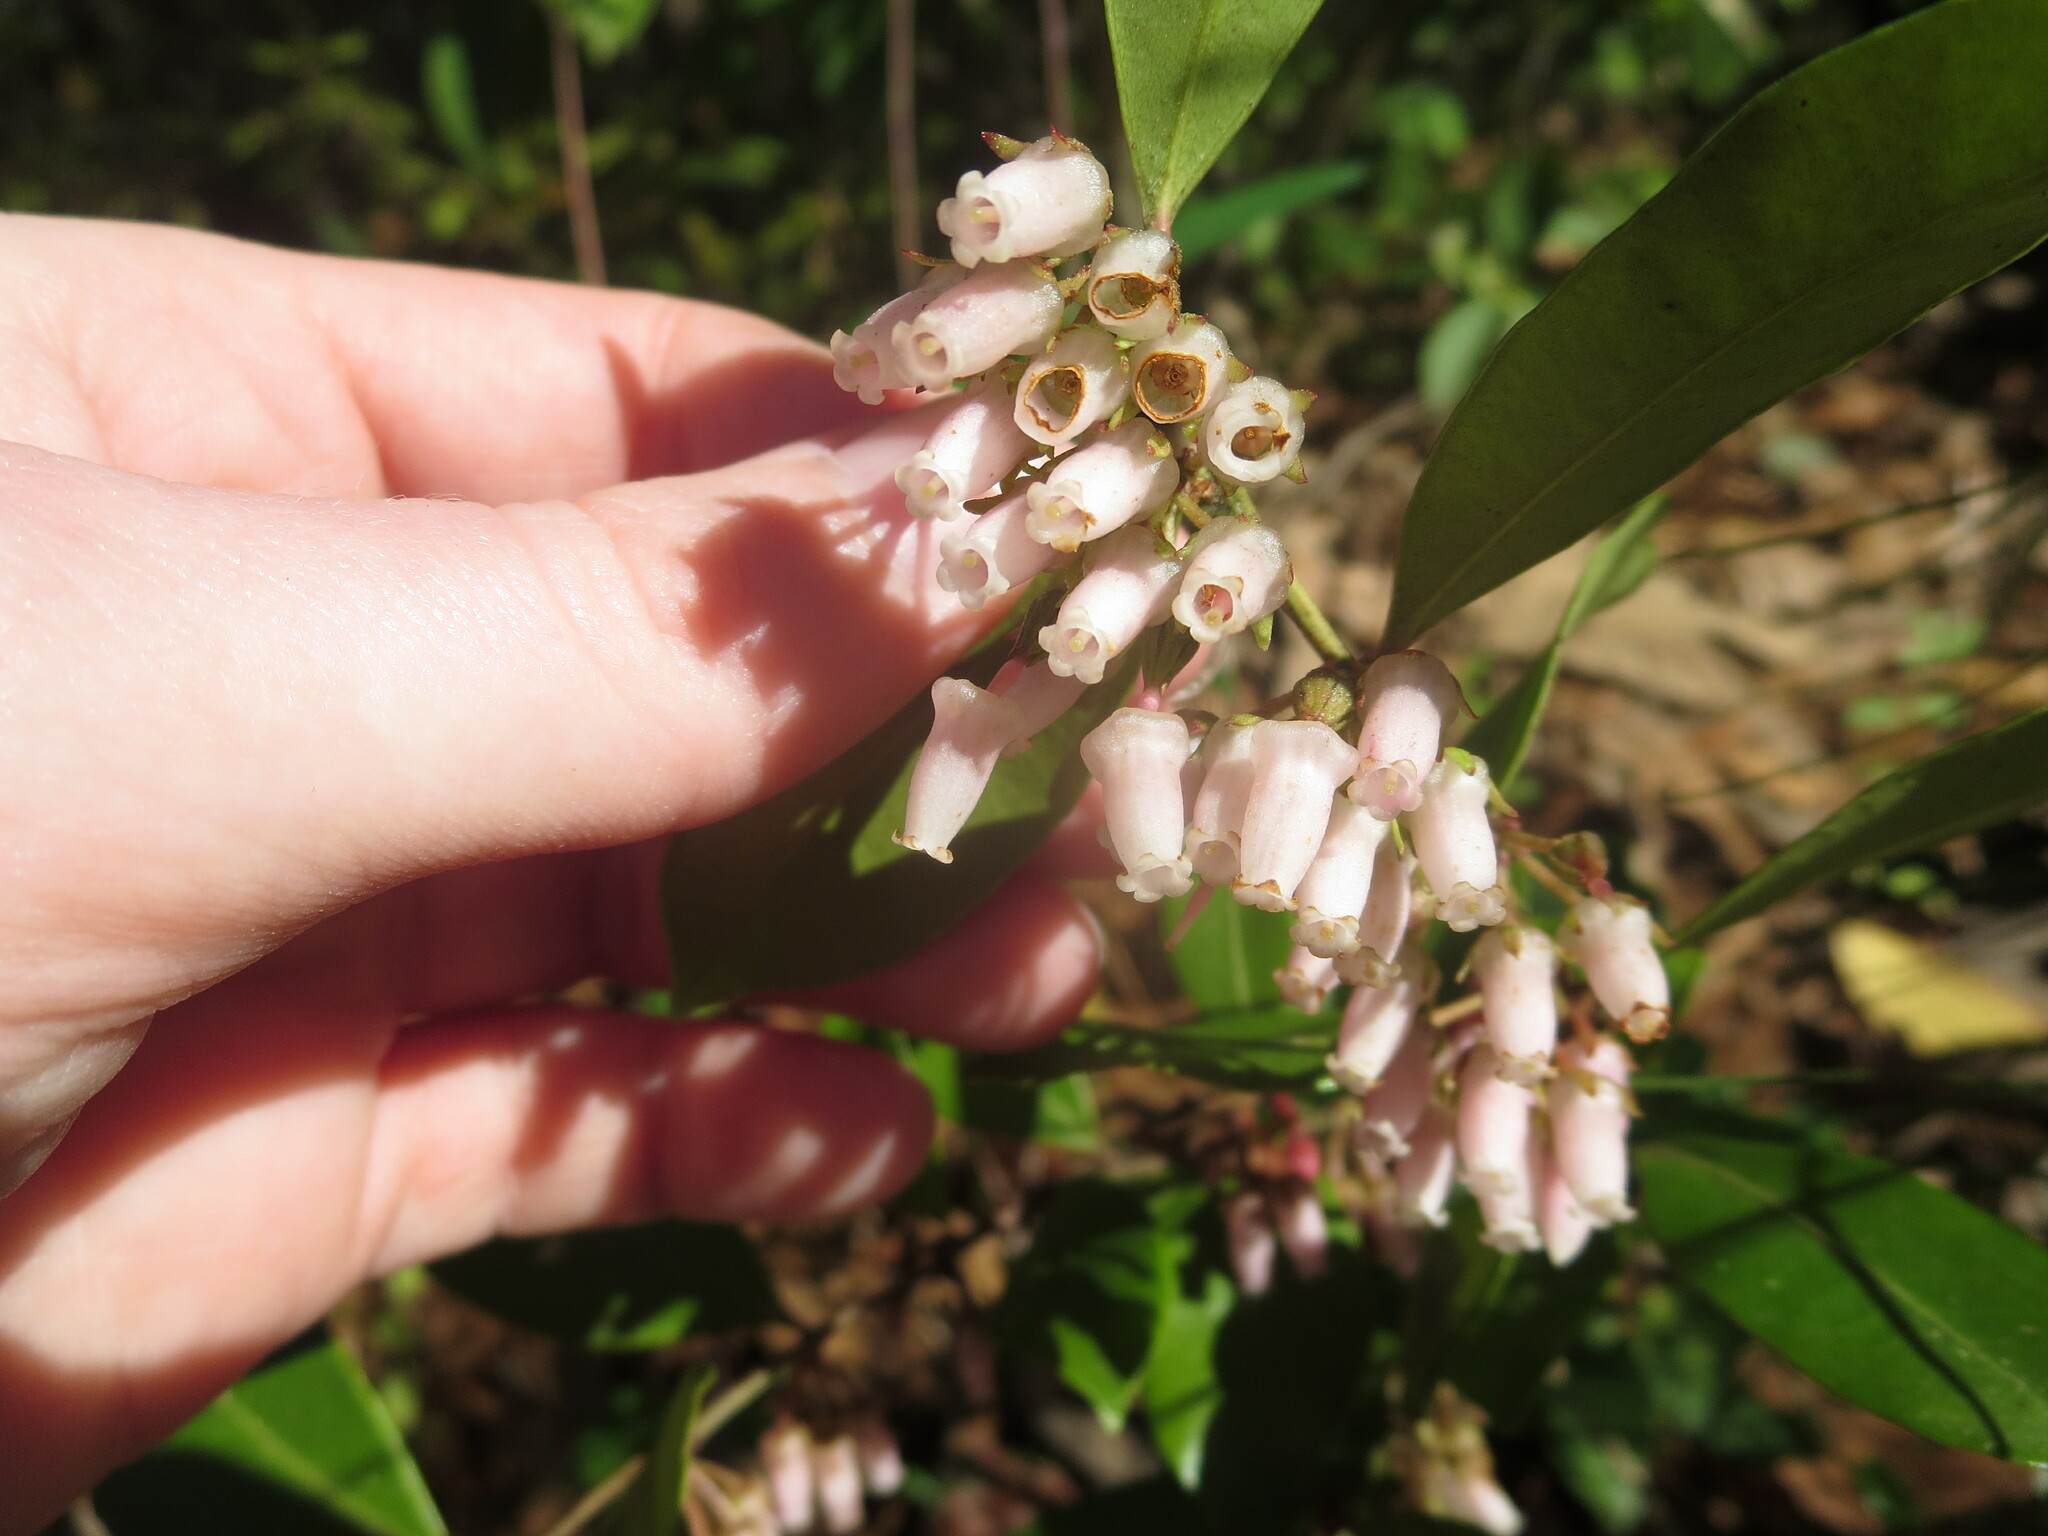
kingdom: Plantae
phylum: Tracheophyta
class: Magnoliopsida
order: Ericales
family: Ericaceae
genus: Lyonia
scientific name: Lyonia lucida
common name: Fetterbush
